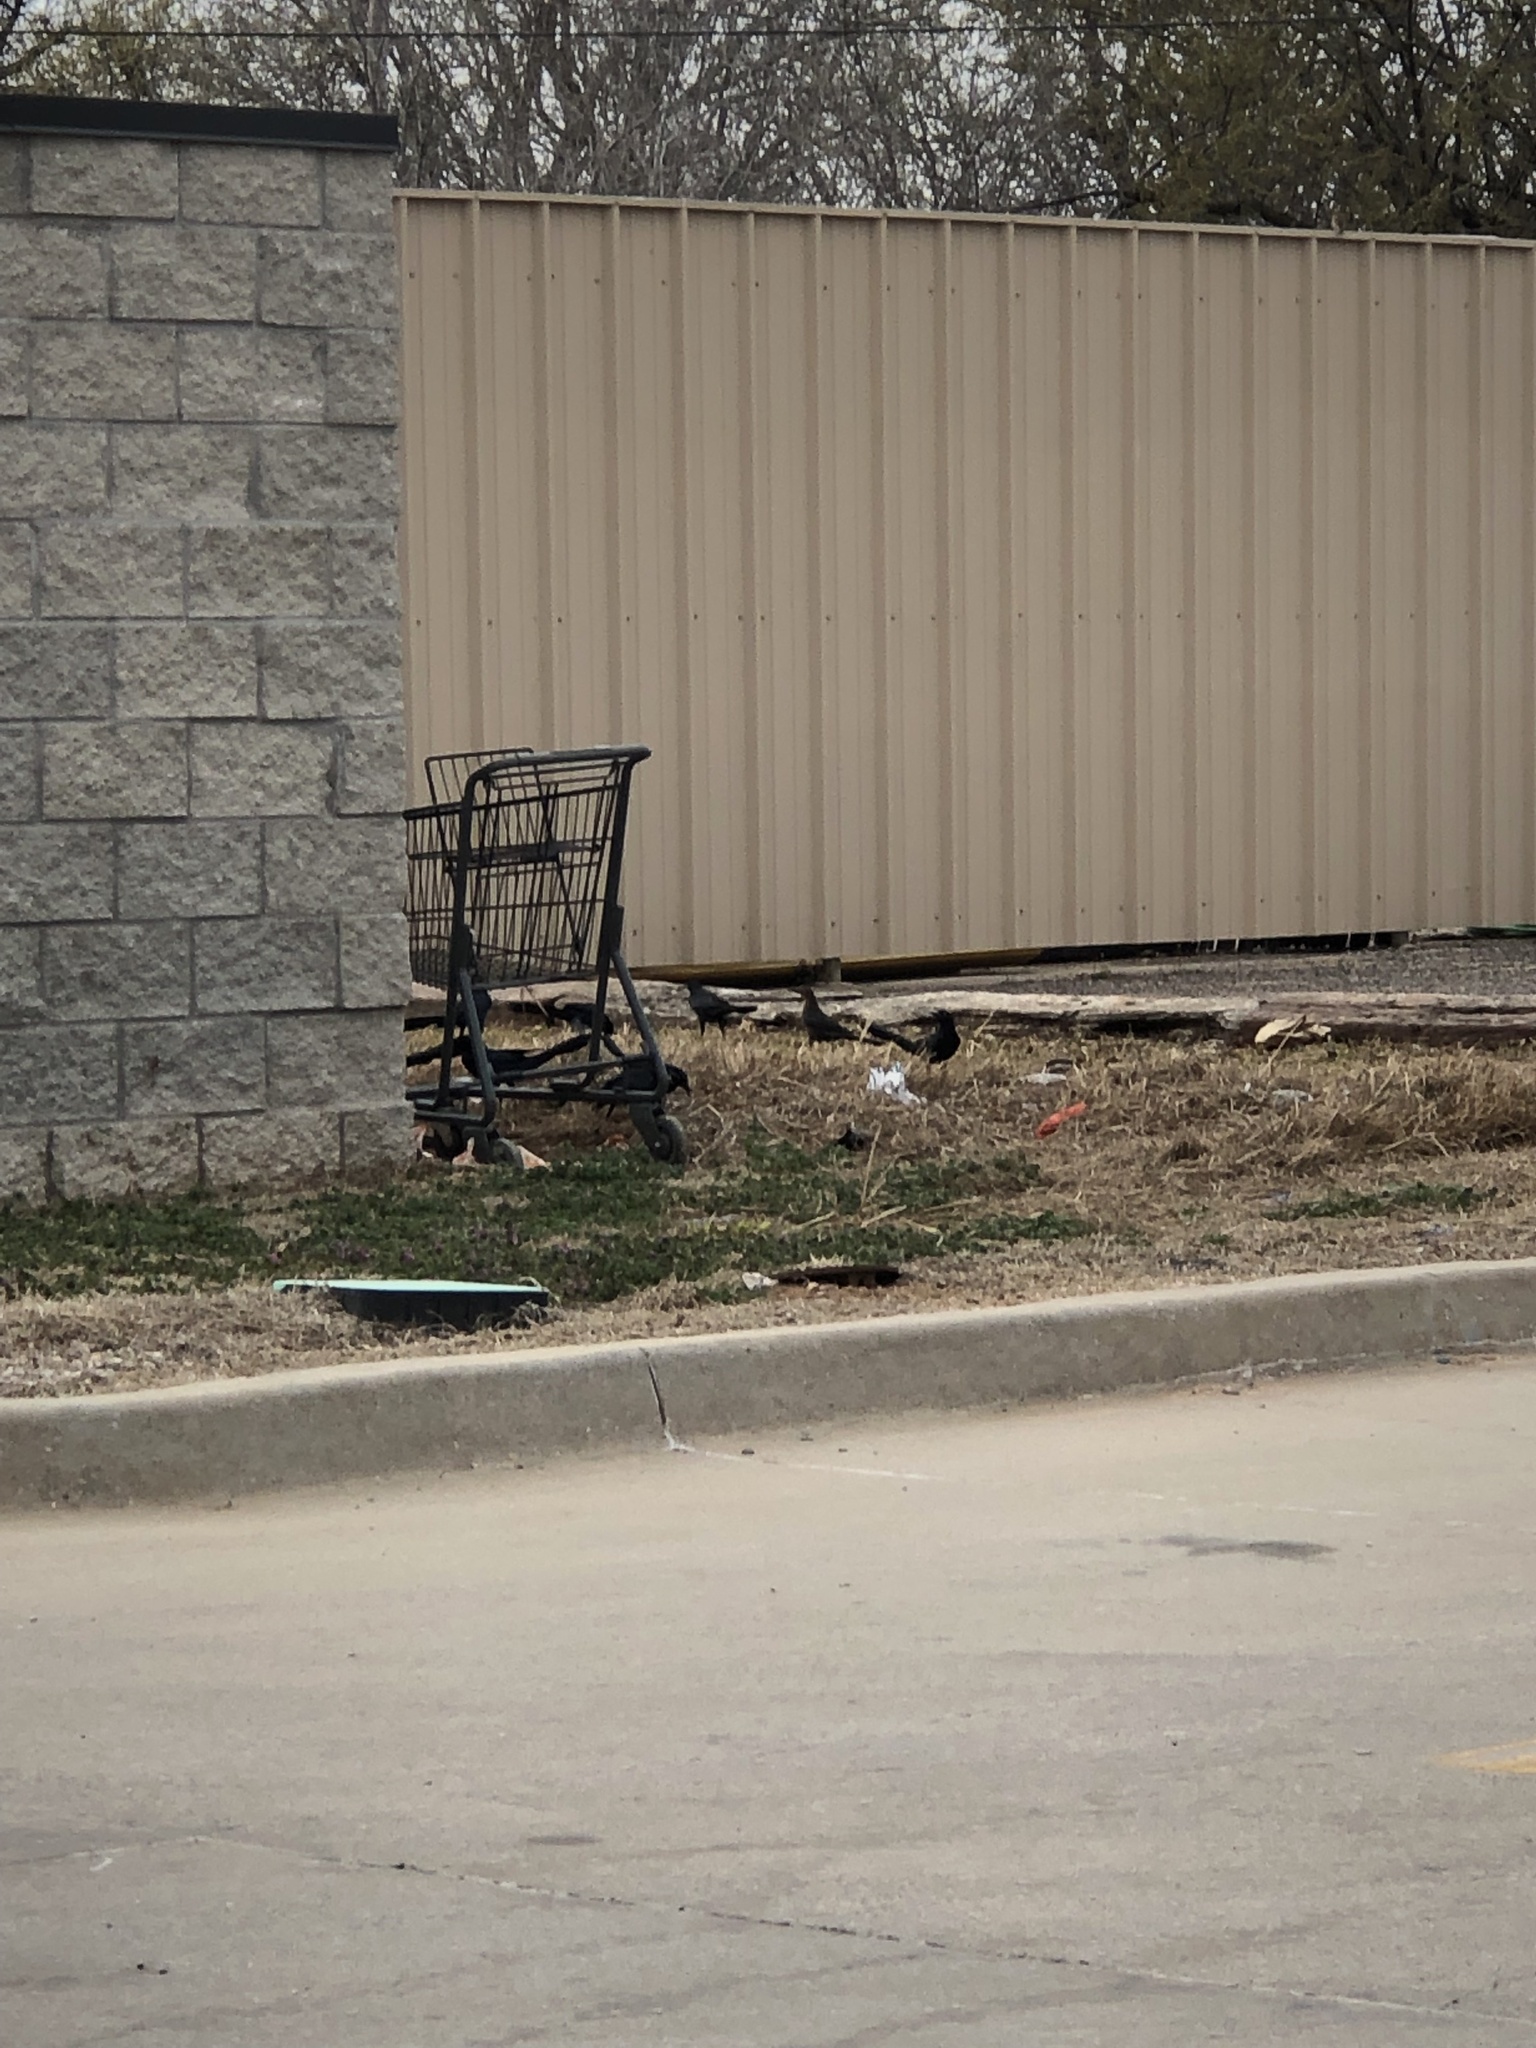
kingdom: Animalia
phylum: Chordata
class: Aves
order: Passeriformes
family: Icteridae
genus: Quiscalus
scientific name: Quiscalus mexicanus
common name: Great-tailed grackle
